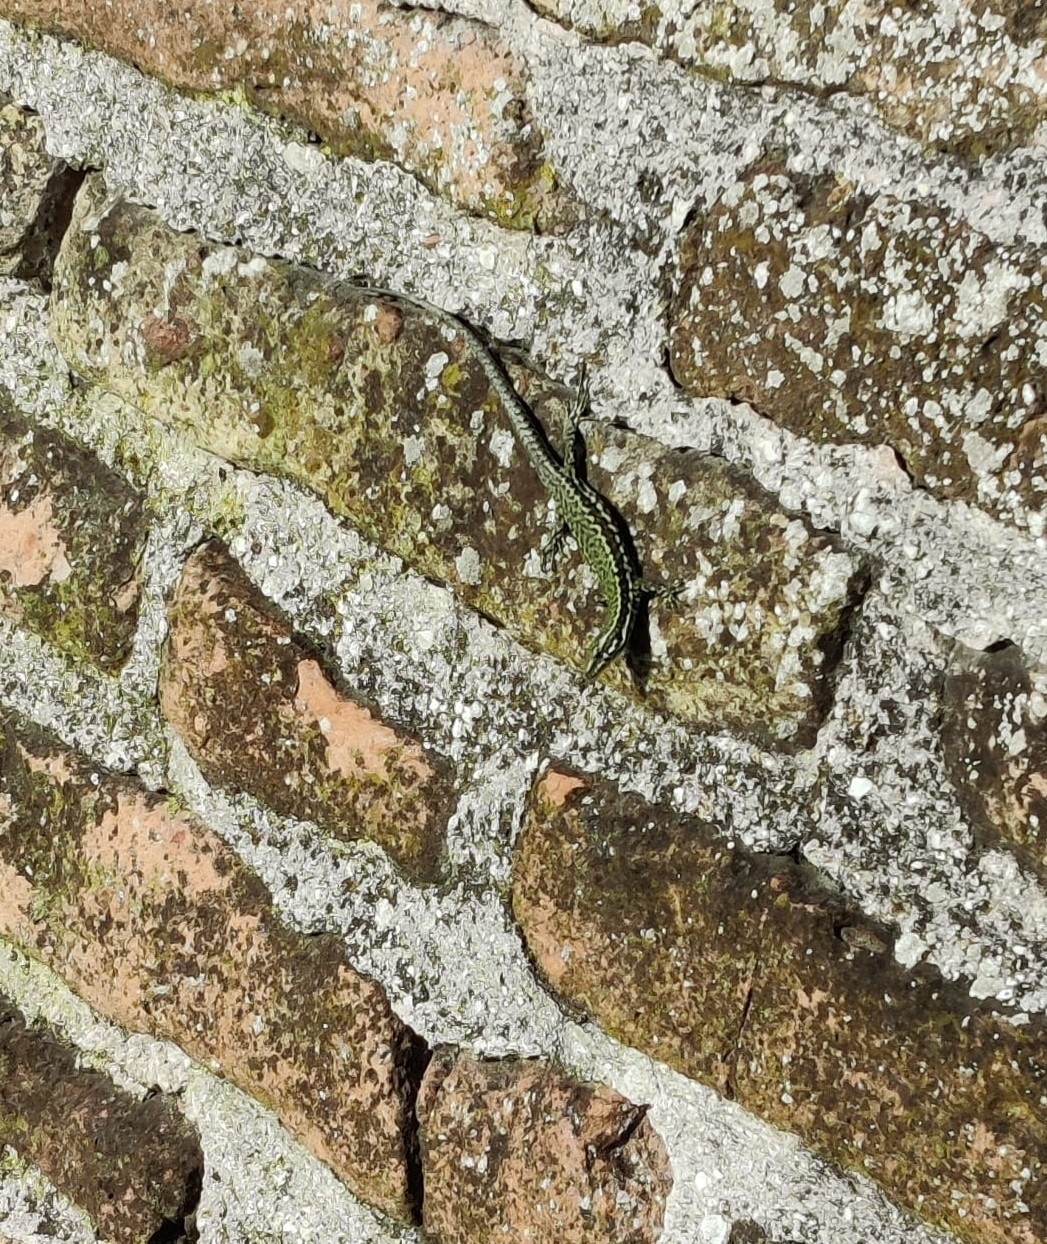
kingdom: Animalia
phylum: Chordata
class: Squamata
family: Lacertidae
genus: Podarcis
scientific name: Podarcis muralis
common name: Common wall lizard
